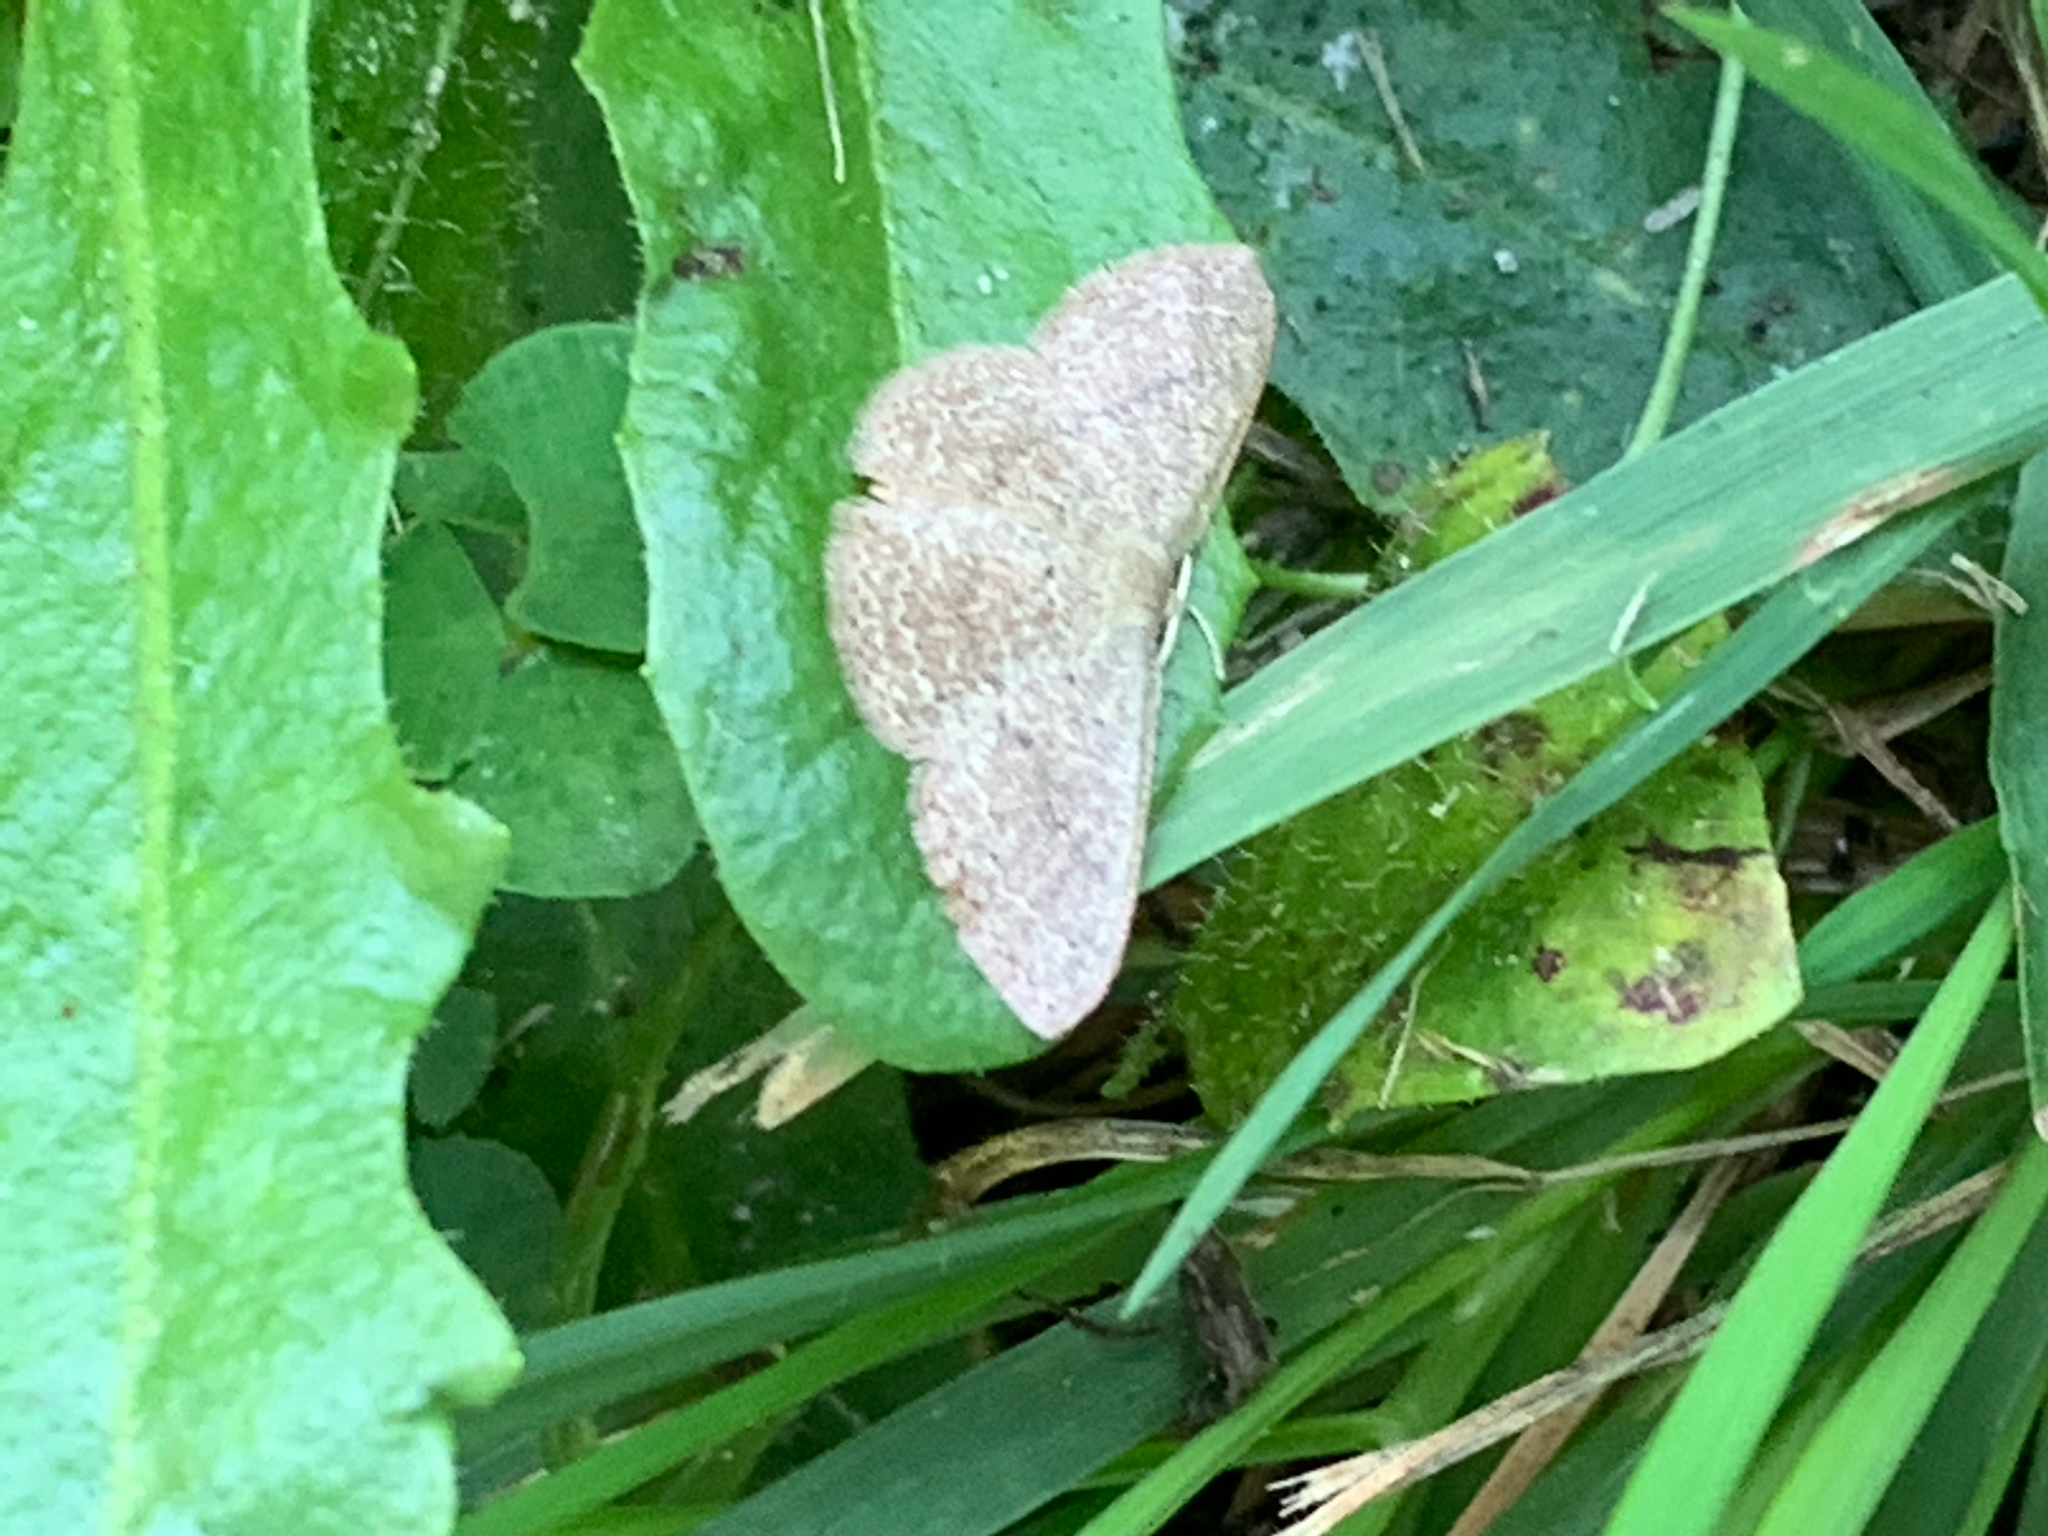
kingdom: Animalia
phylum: Arthropoda
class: Insecta
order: Lepidoptera
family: Geometridae
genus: Pleuroprucha
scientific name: Pleuroprucha insulsaria
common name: Common tan wave
